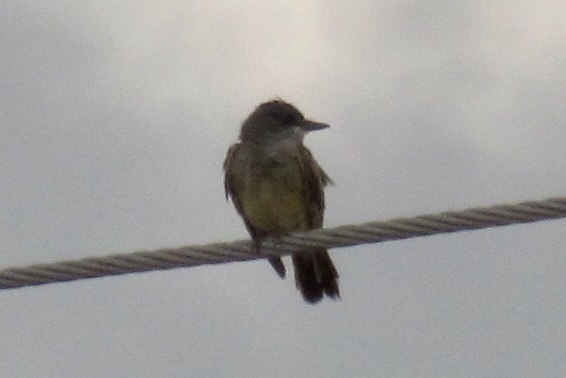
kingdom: Animalia
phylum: Chordata
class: Aves
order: Passeriformes
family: Tyrannidae
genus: Tyrannus
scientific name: Tyrannus vociferans
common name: Cassin's kingbird
